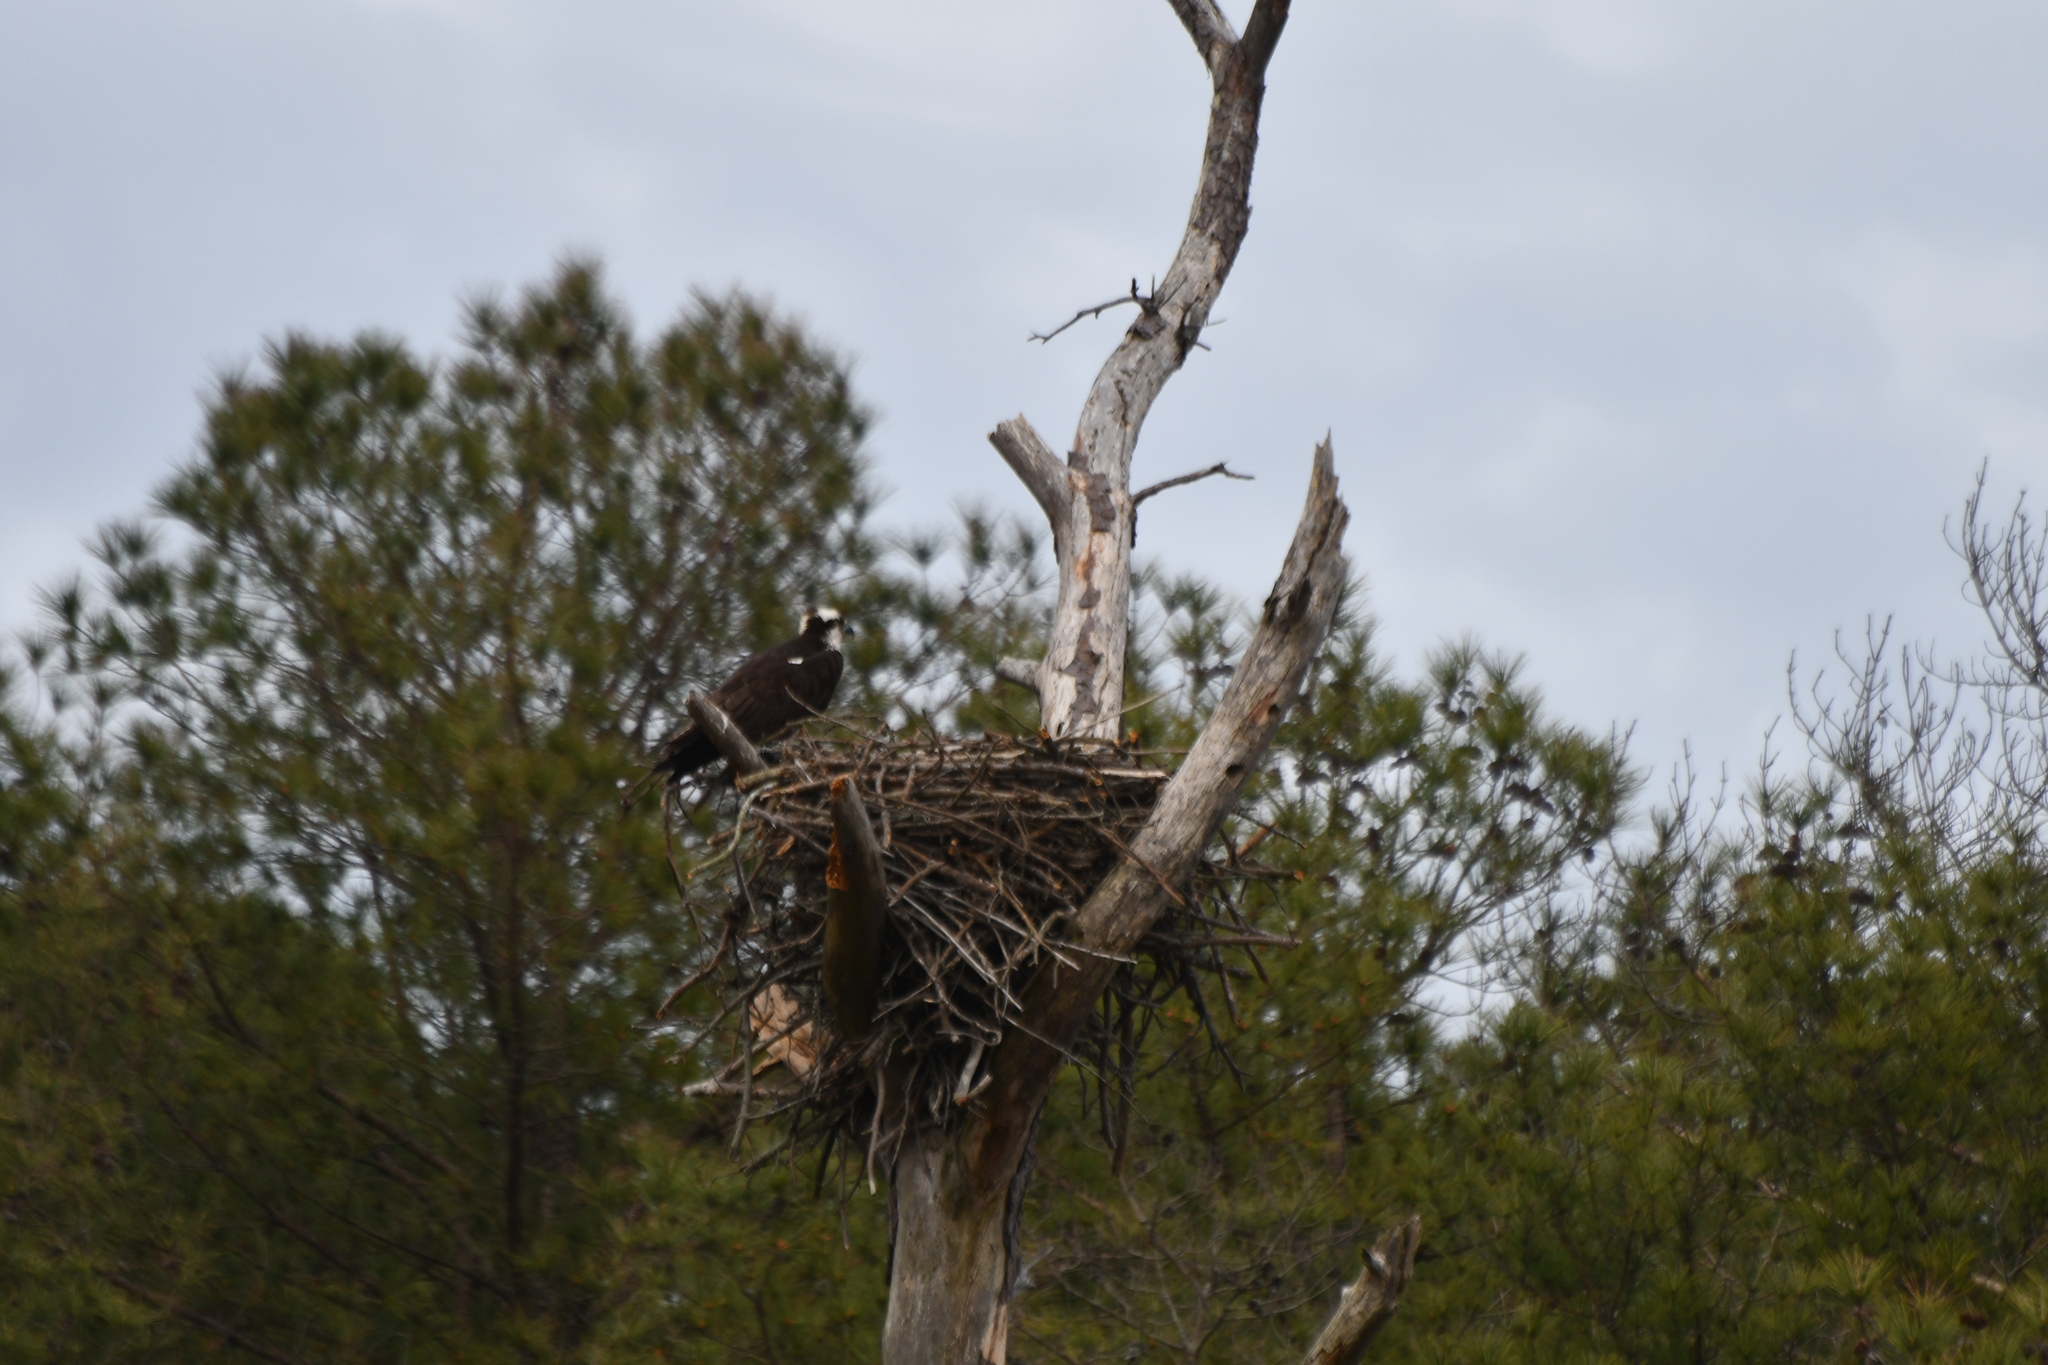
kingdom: Animalia
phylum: Chordata
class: Aves
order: Accipitriformes
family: Pandionidae
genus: Pandion
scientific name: Pandion haliaetus
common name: Osprey
